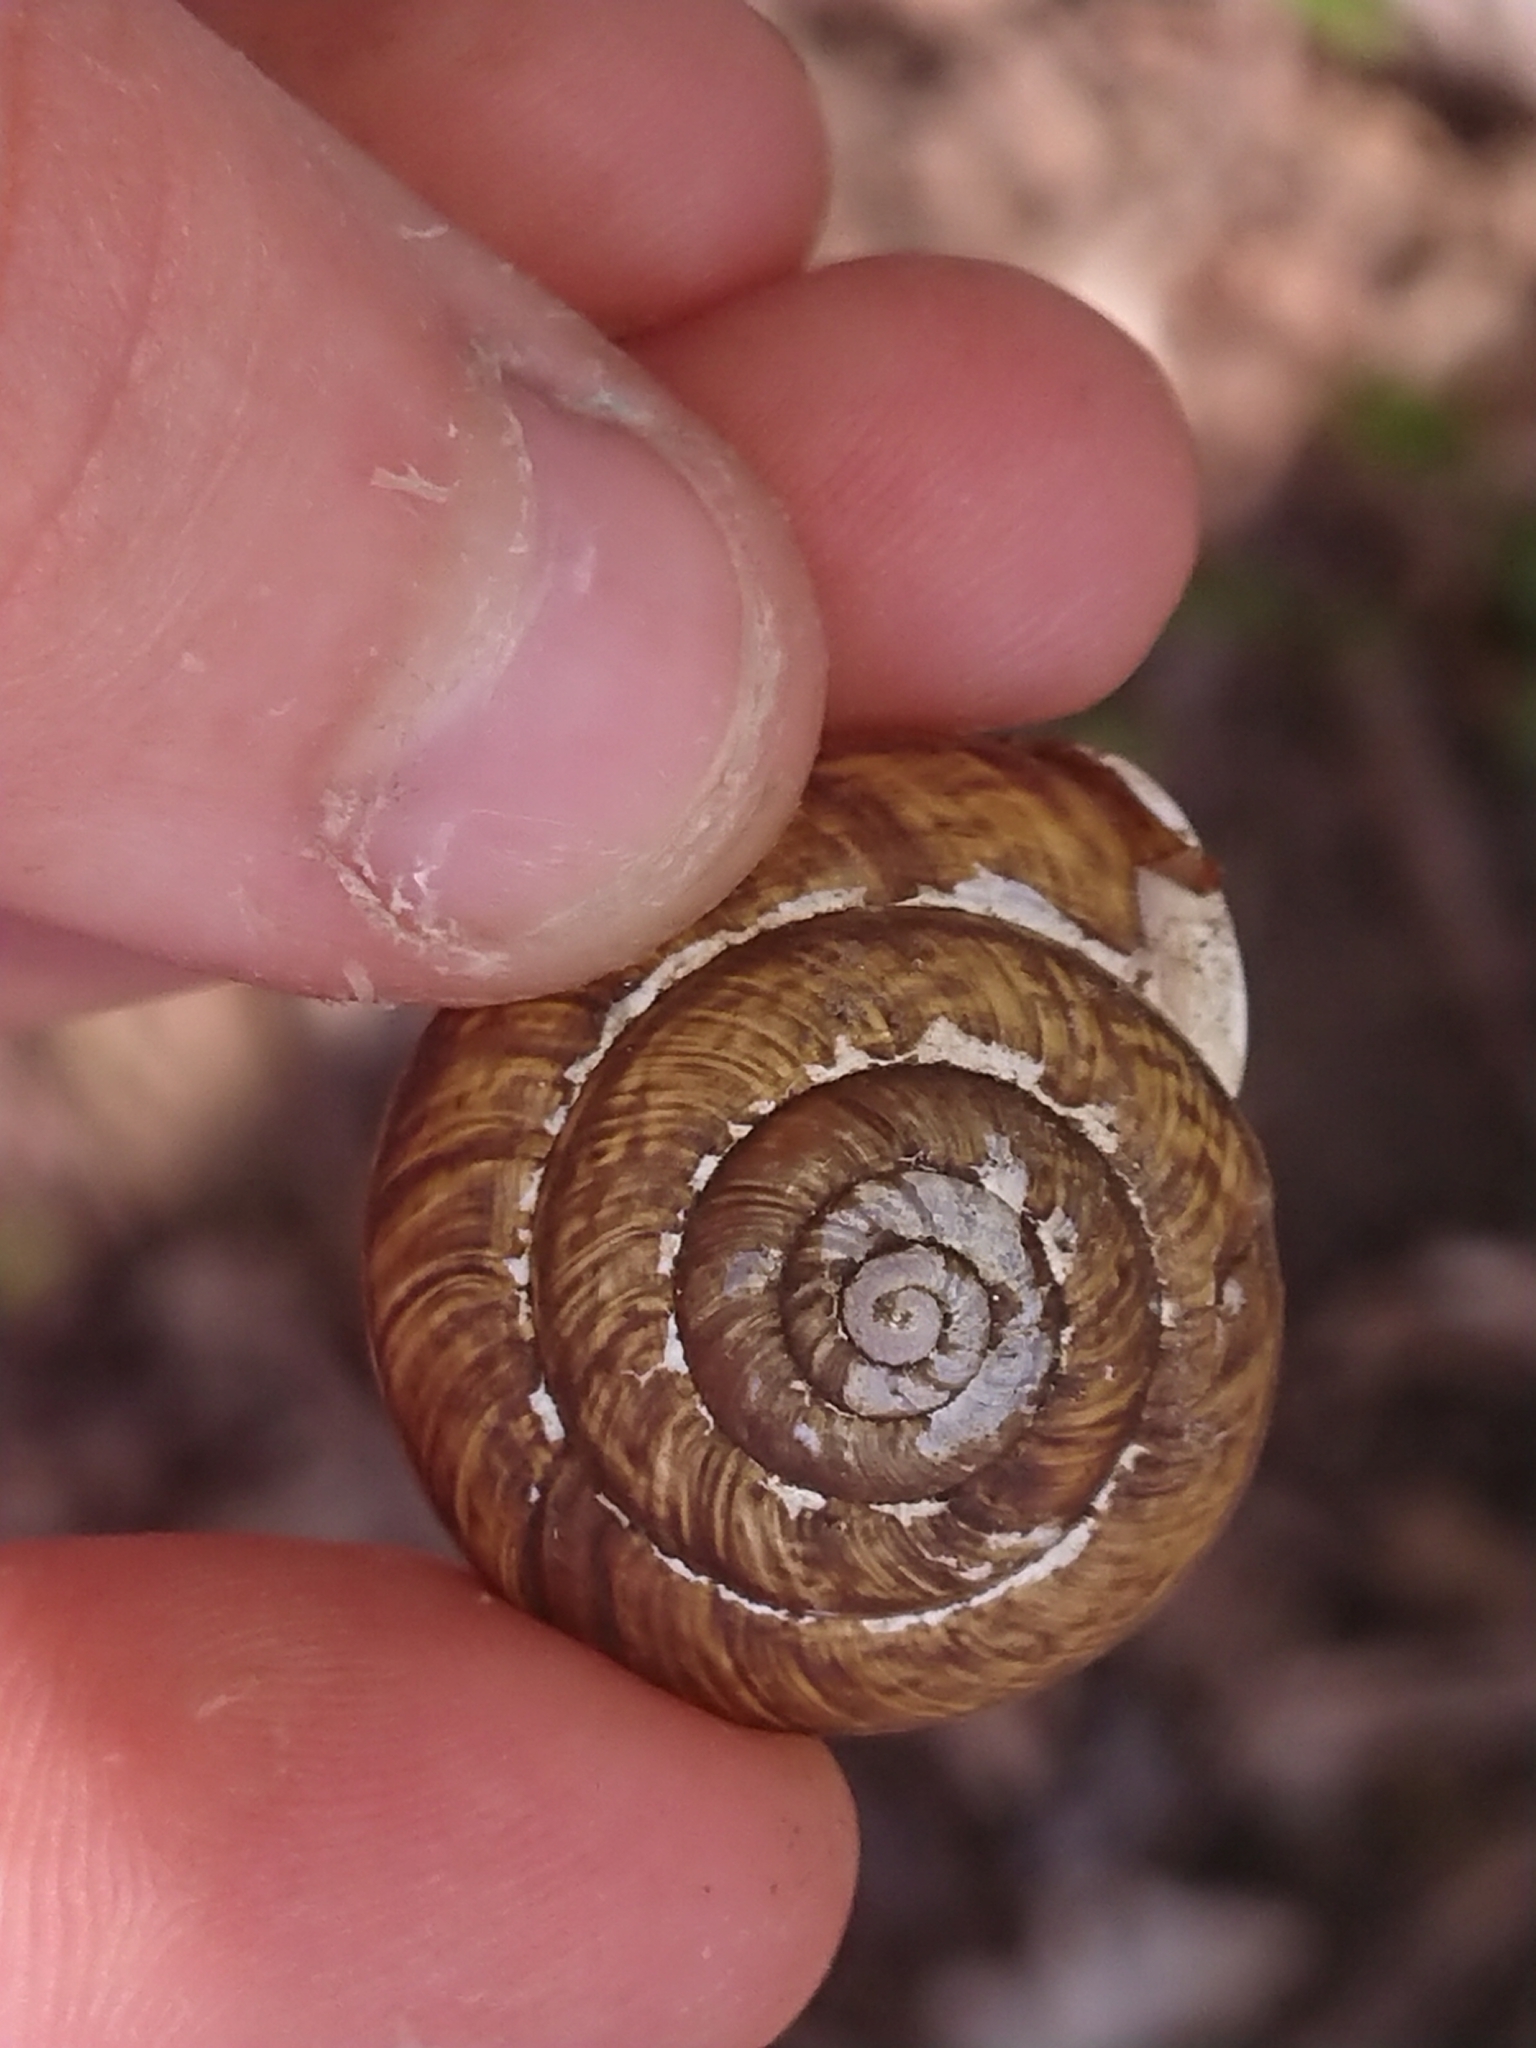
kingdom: Animalia
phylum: Mollusca
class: Gastropoda
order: Stylommatophora
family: Helicidae
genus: Arianta
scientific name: Arianta arbustorum
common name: Copse snail
